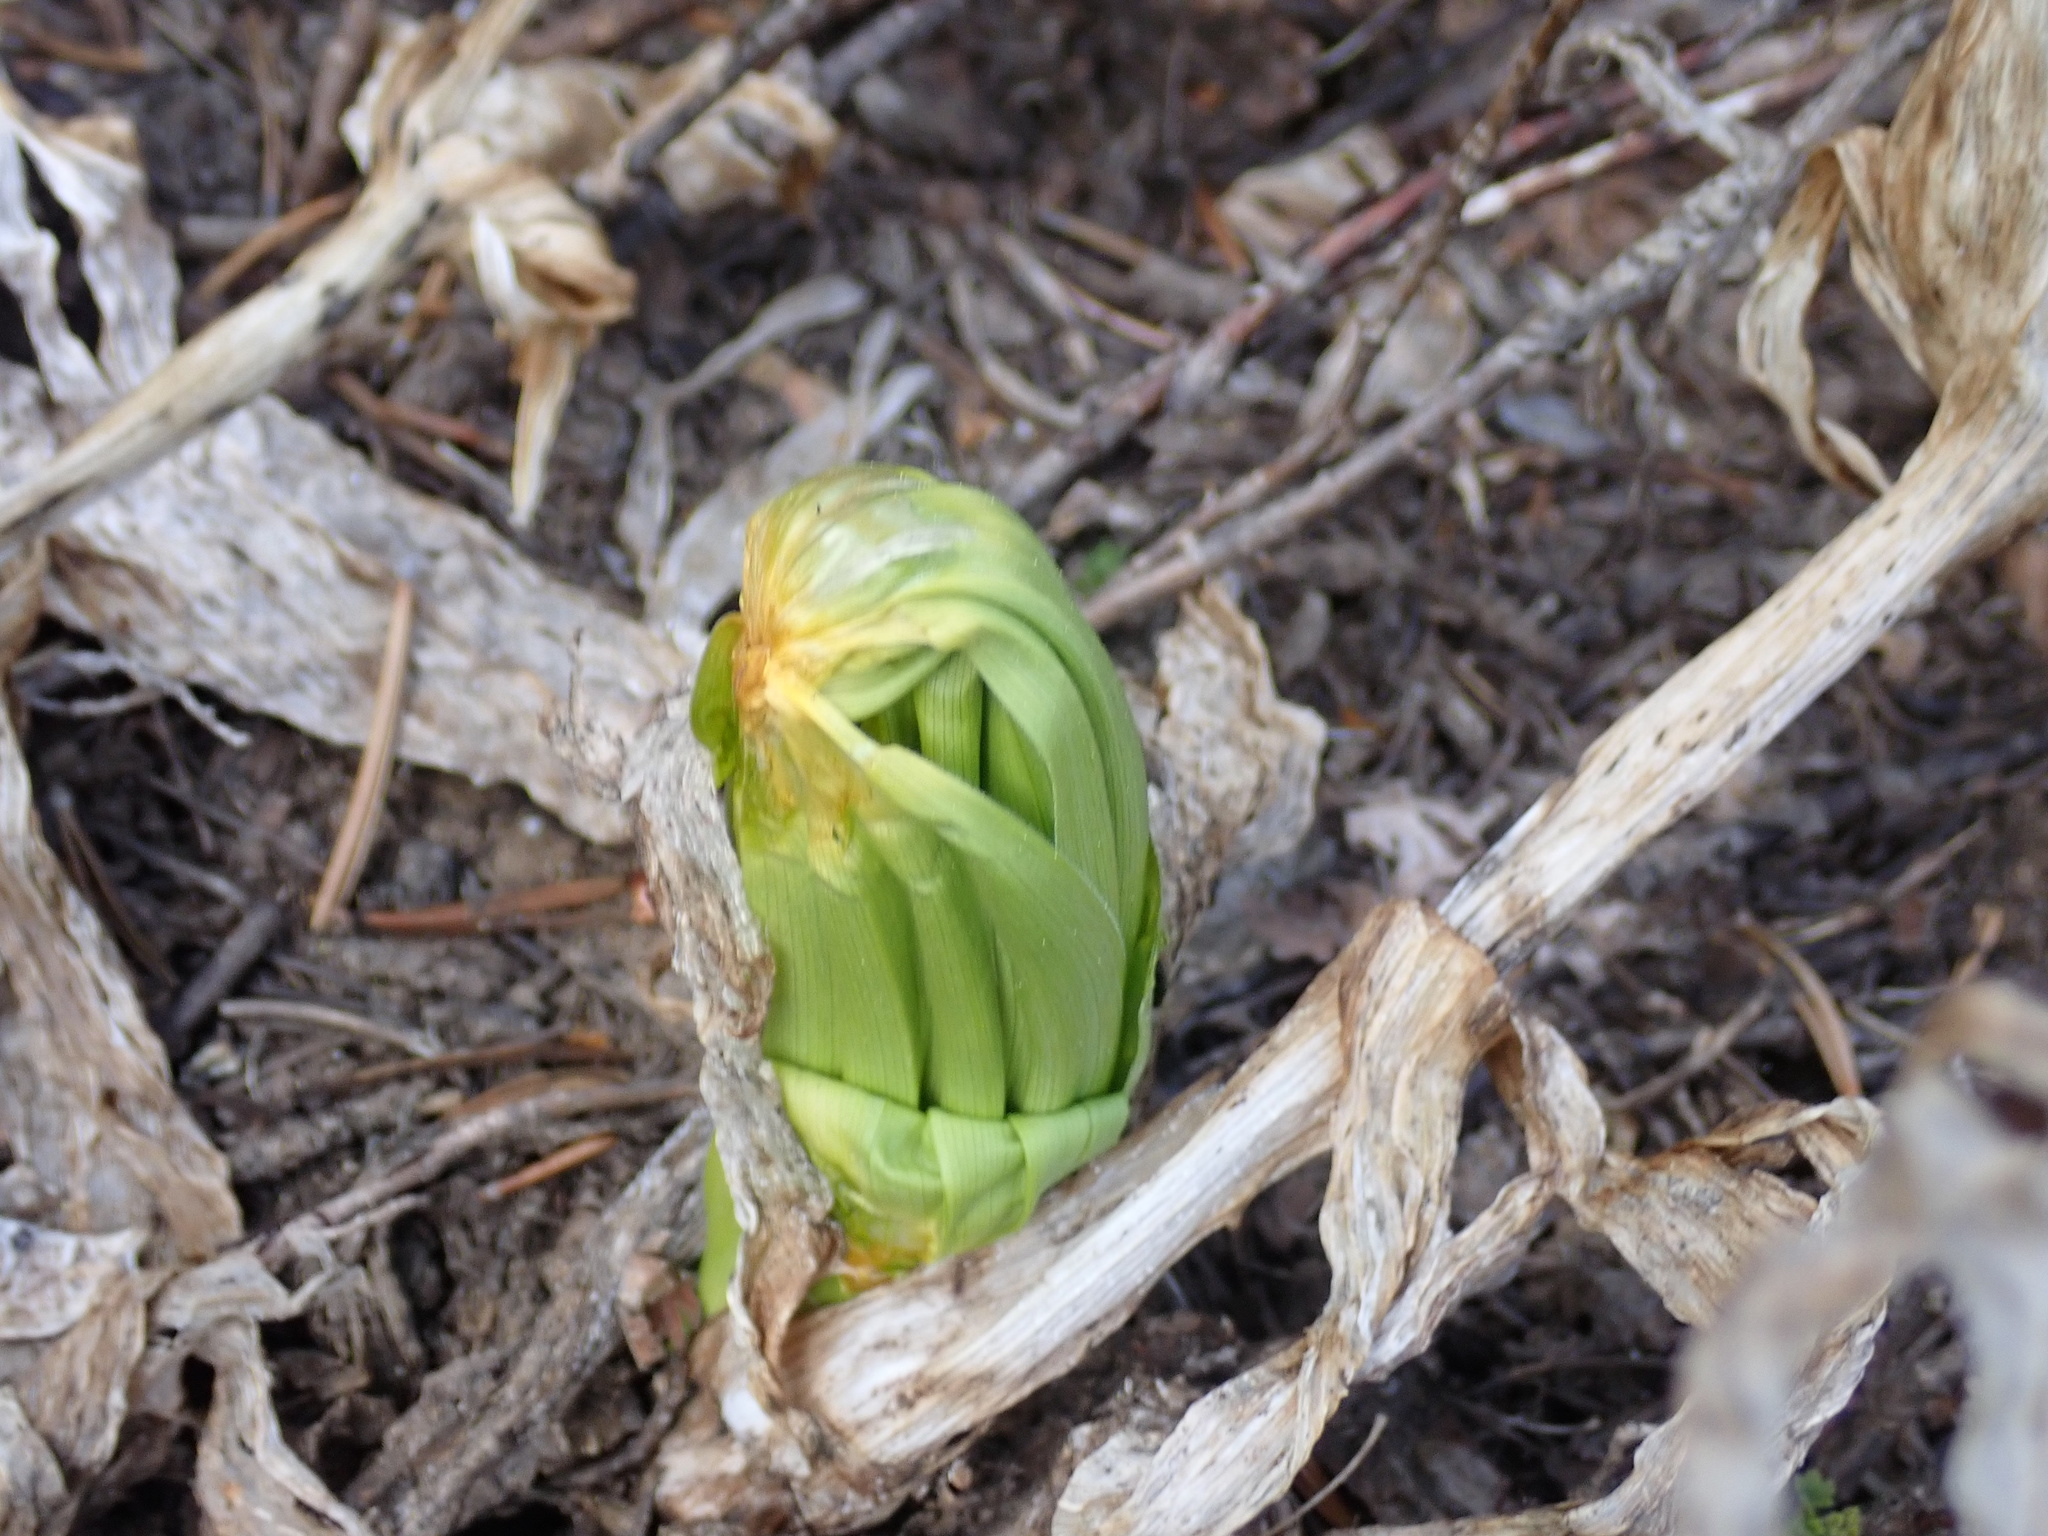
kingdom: Plantae
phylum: Tracheophyta
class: Liliopsida
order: Liliales
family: Melanthiaceae
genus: Veratrum
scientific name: Veratrum californicum
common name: California veratrum
